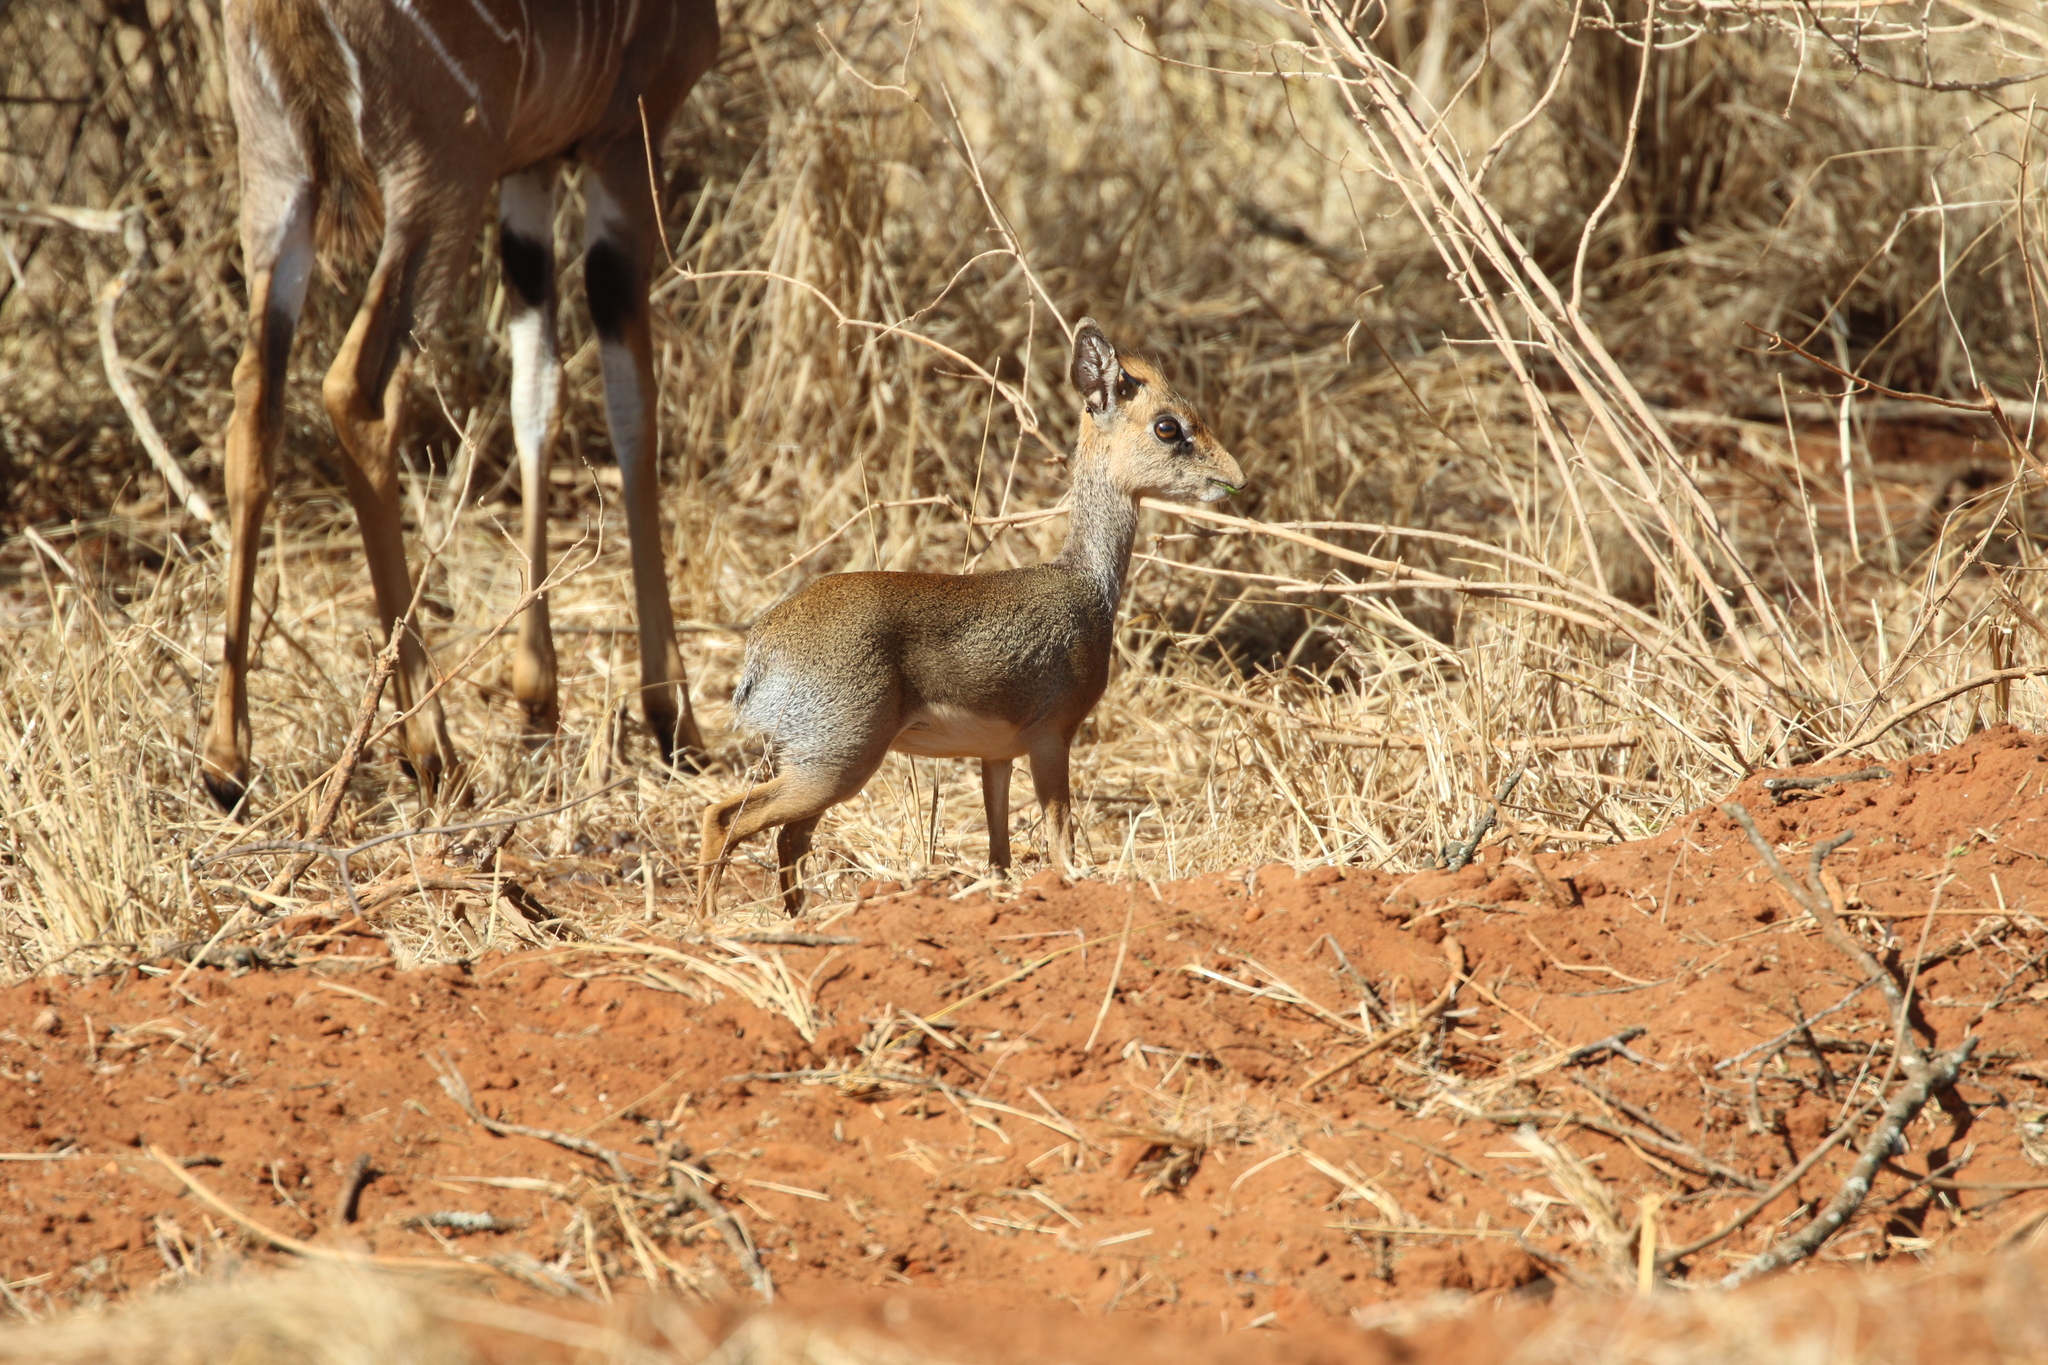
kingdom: Animalia
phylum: Chordata
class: Mammalia
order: Artiodactyla
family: Bovidae
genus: Madoqua
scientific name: Madoqua
